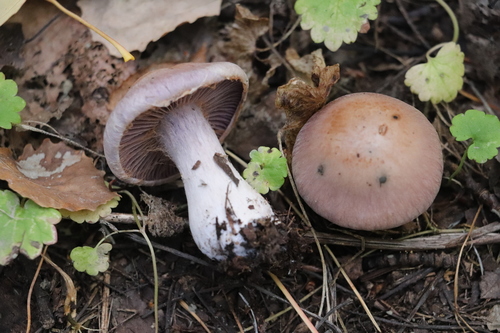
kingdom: Fungi
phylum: Basidiomycota
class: Agaricomycetes
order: Agaricales
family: Cortinariaceae
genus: Thaxterogaster
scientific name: Thaxterogaster porphyropus
